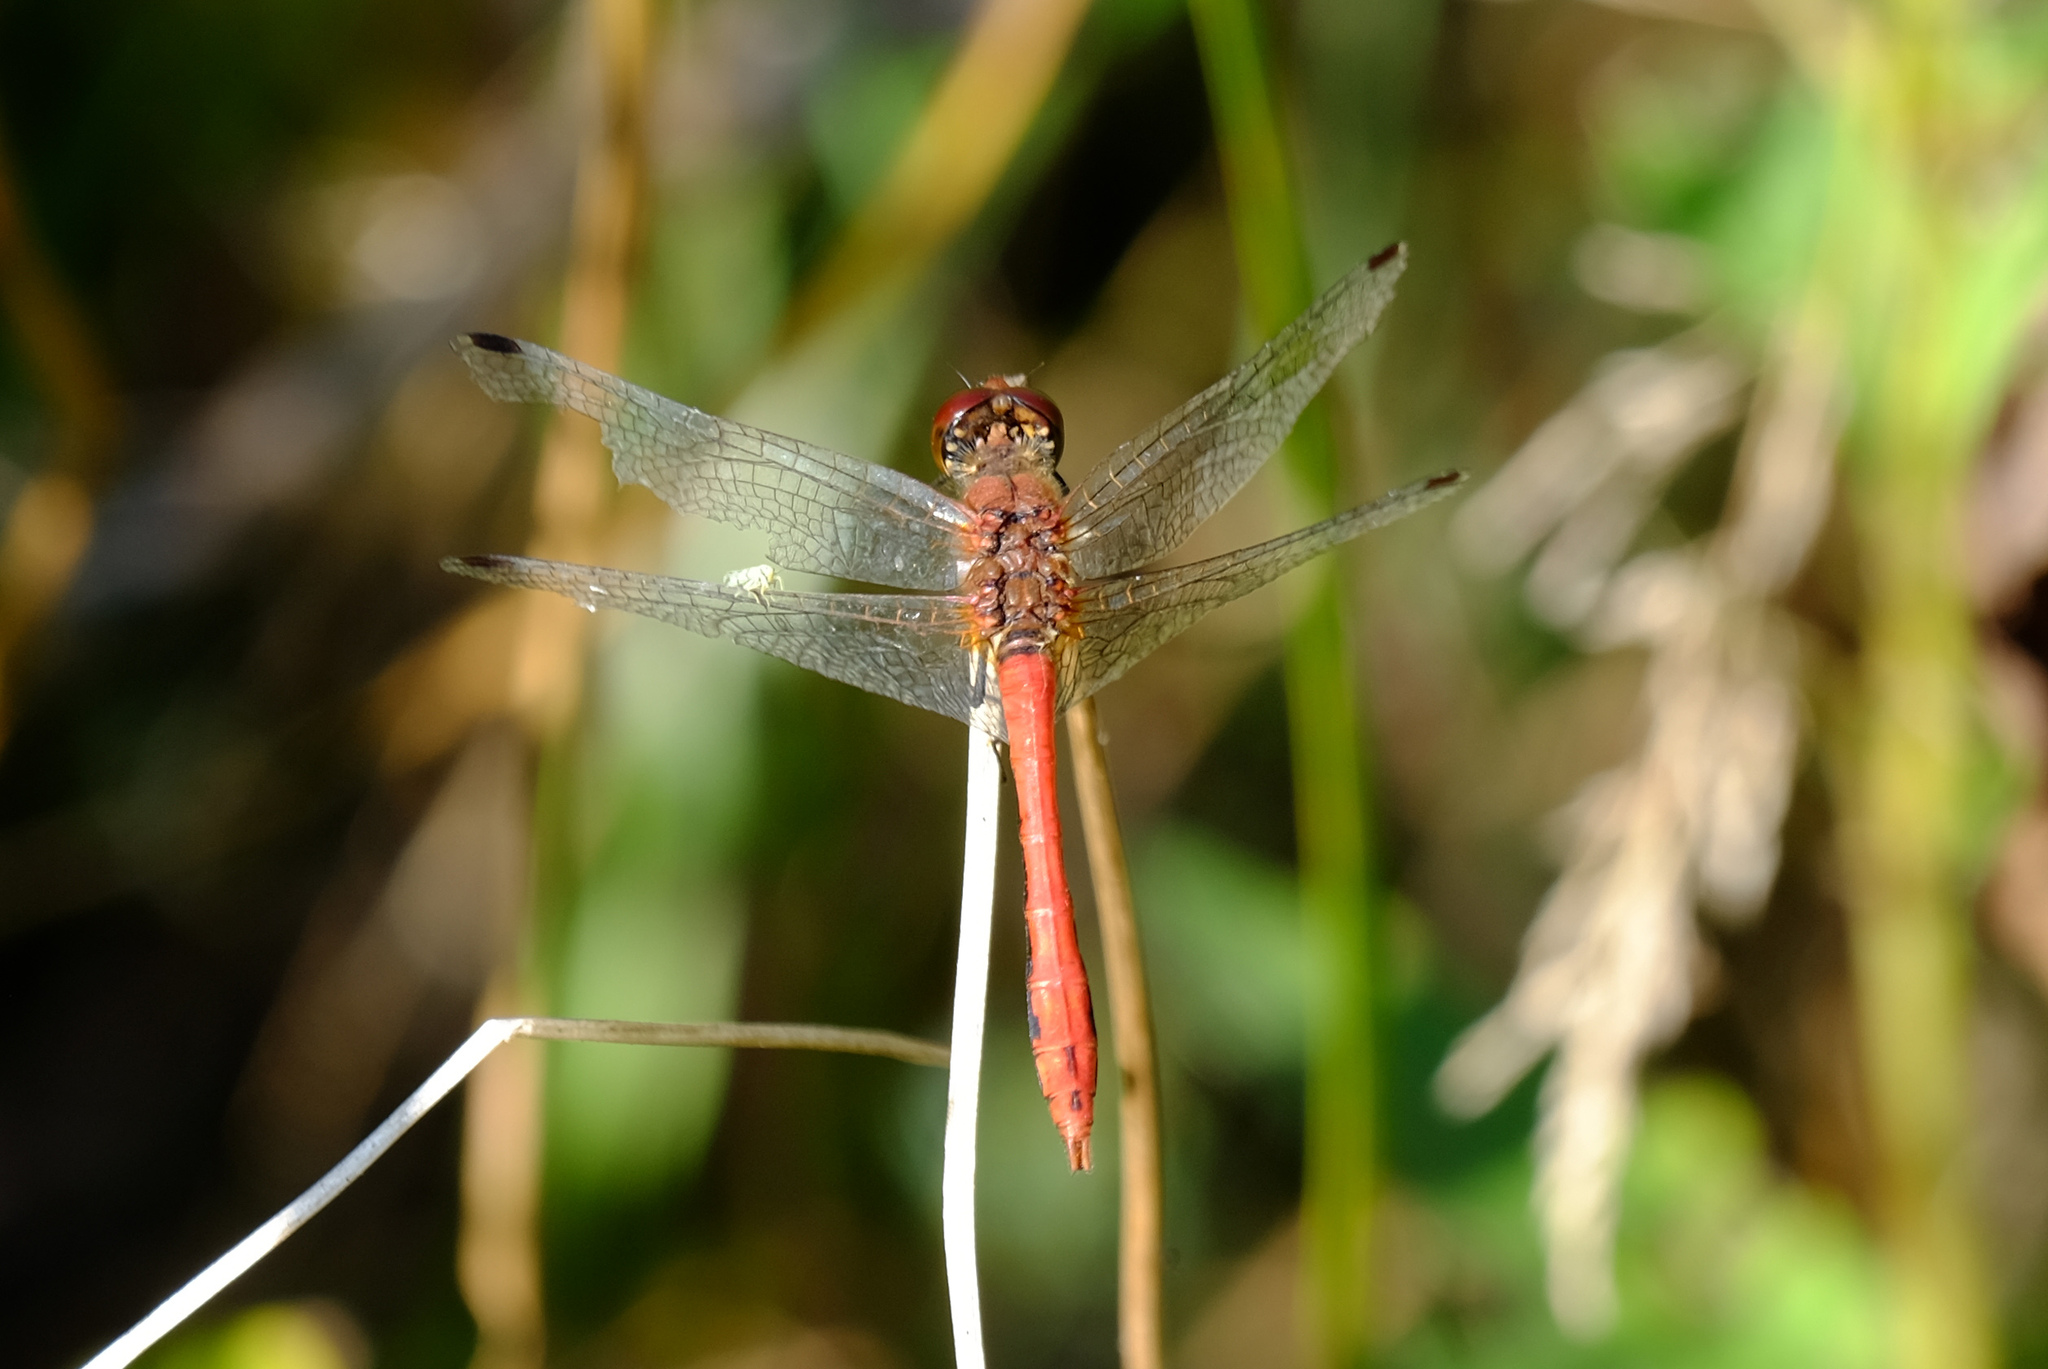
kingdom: Animalia
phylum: Arthropoda
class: Insecta
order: Odonata
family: Libellulidae
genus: Sympetrum
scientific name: Sympetrum sanguineum
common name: Ruddy darter
